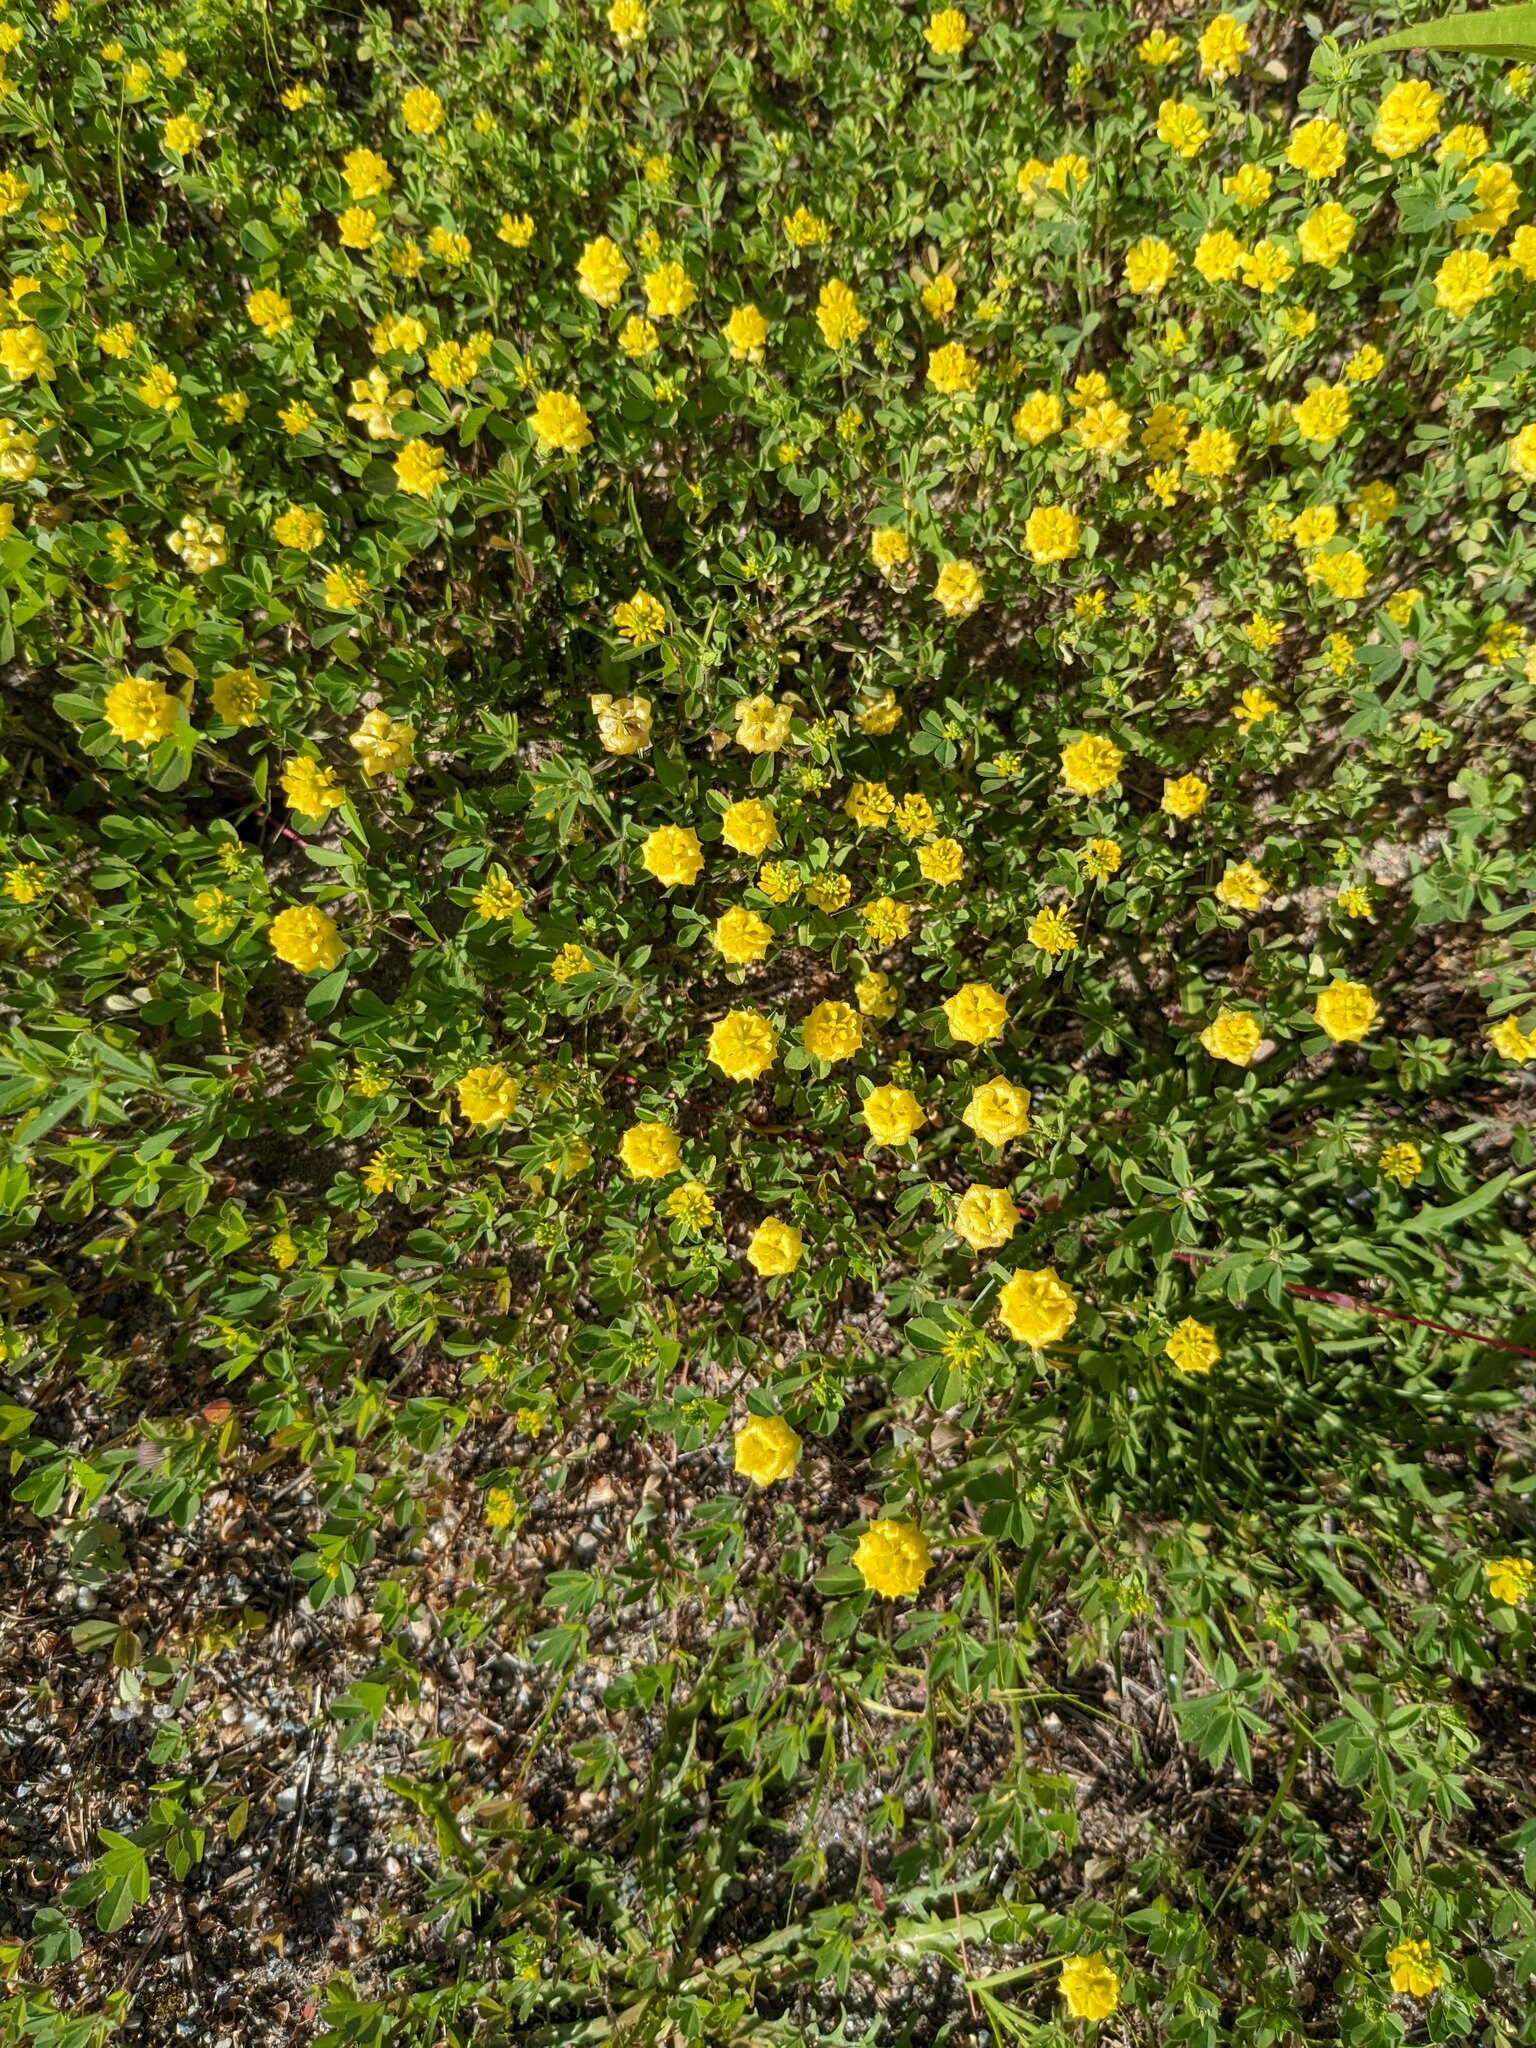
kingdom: Plantae
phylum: Tracheophyta
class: Magnoliopsida
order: Fabales
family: Fabaceae
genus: Trifolium
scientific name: Trifolium campestre
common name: Field clover
